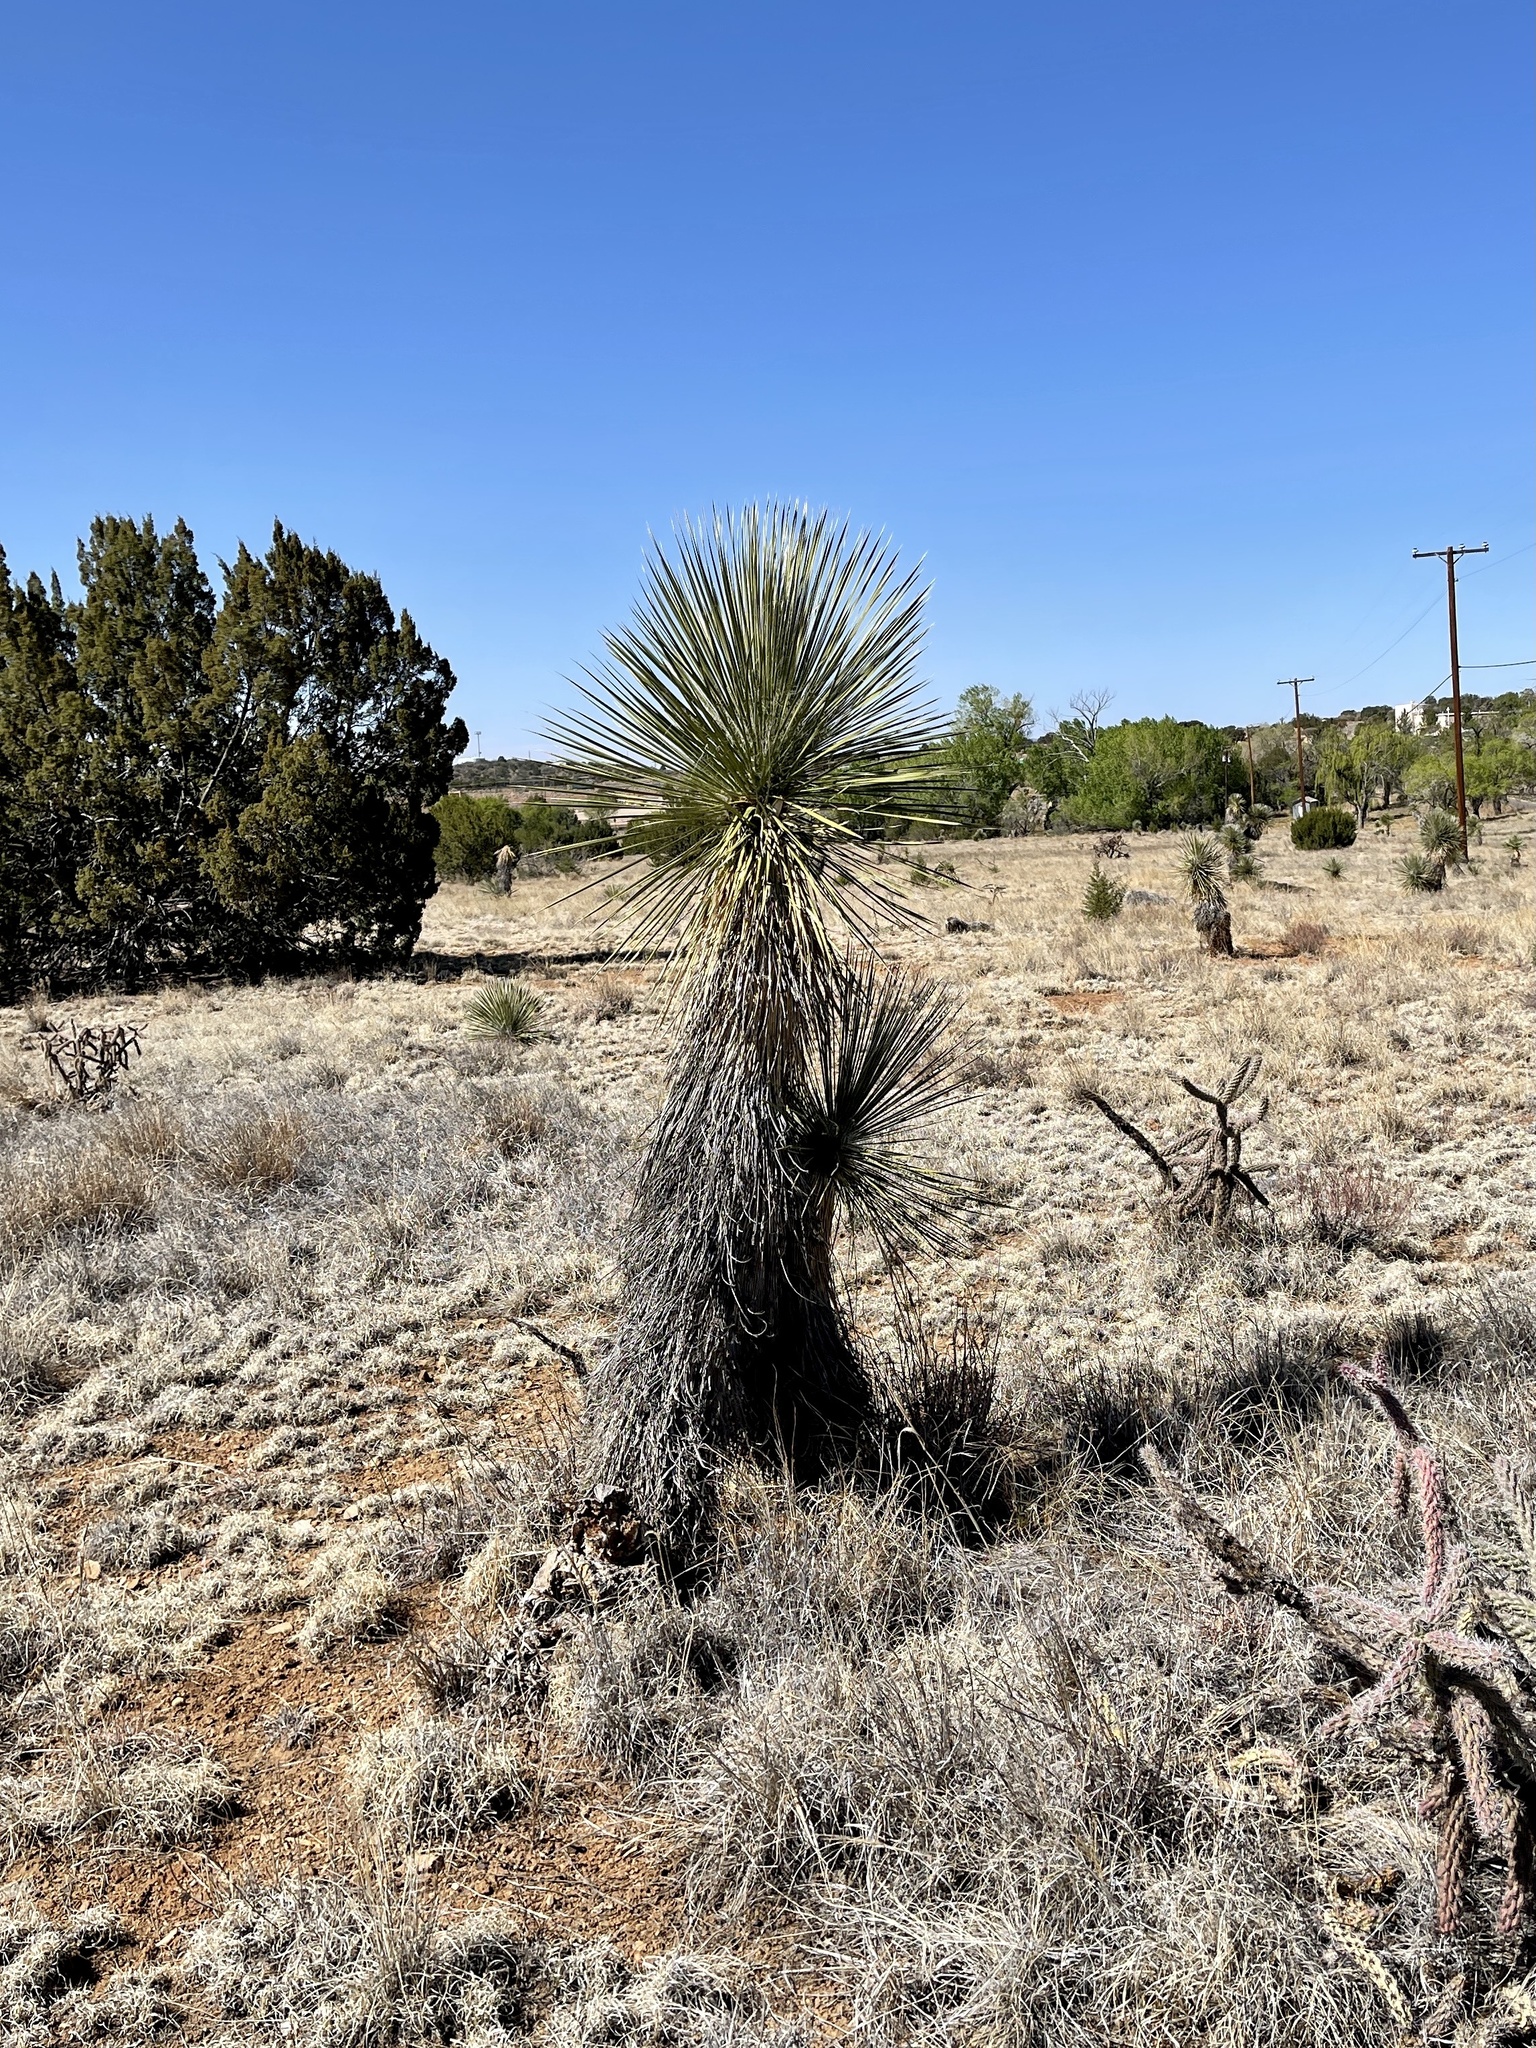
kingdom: Plantae
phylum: Tracheophyta
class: Liliopsida
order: Asparagales
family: Asparagaceae
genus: Yucca
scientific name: Yucca elata
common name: Palmella
